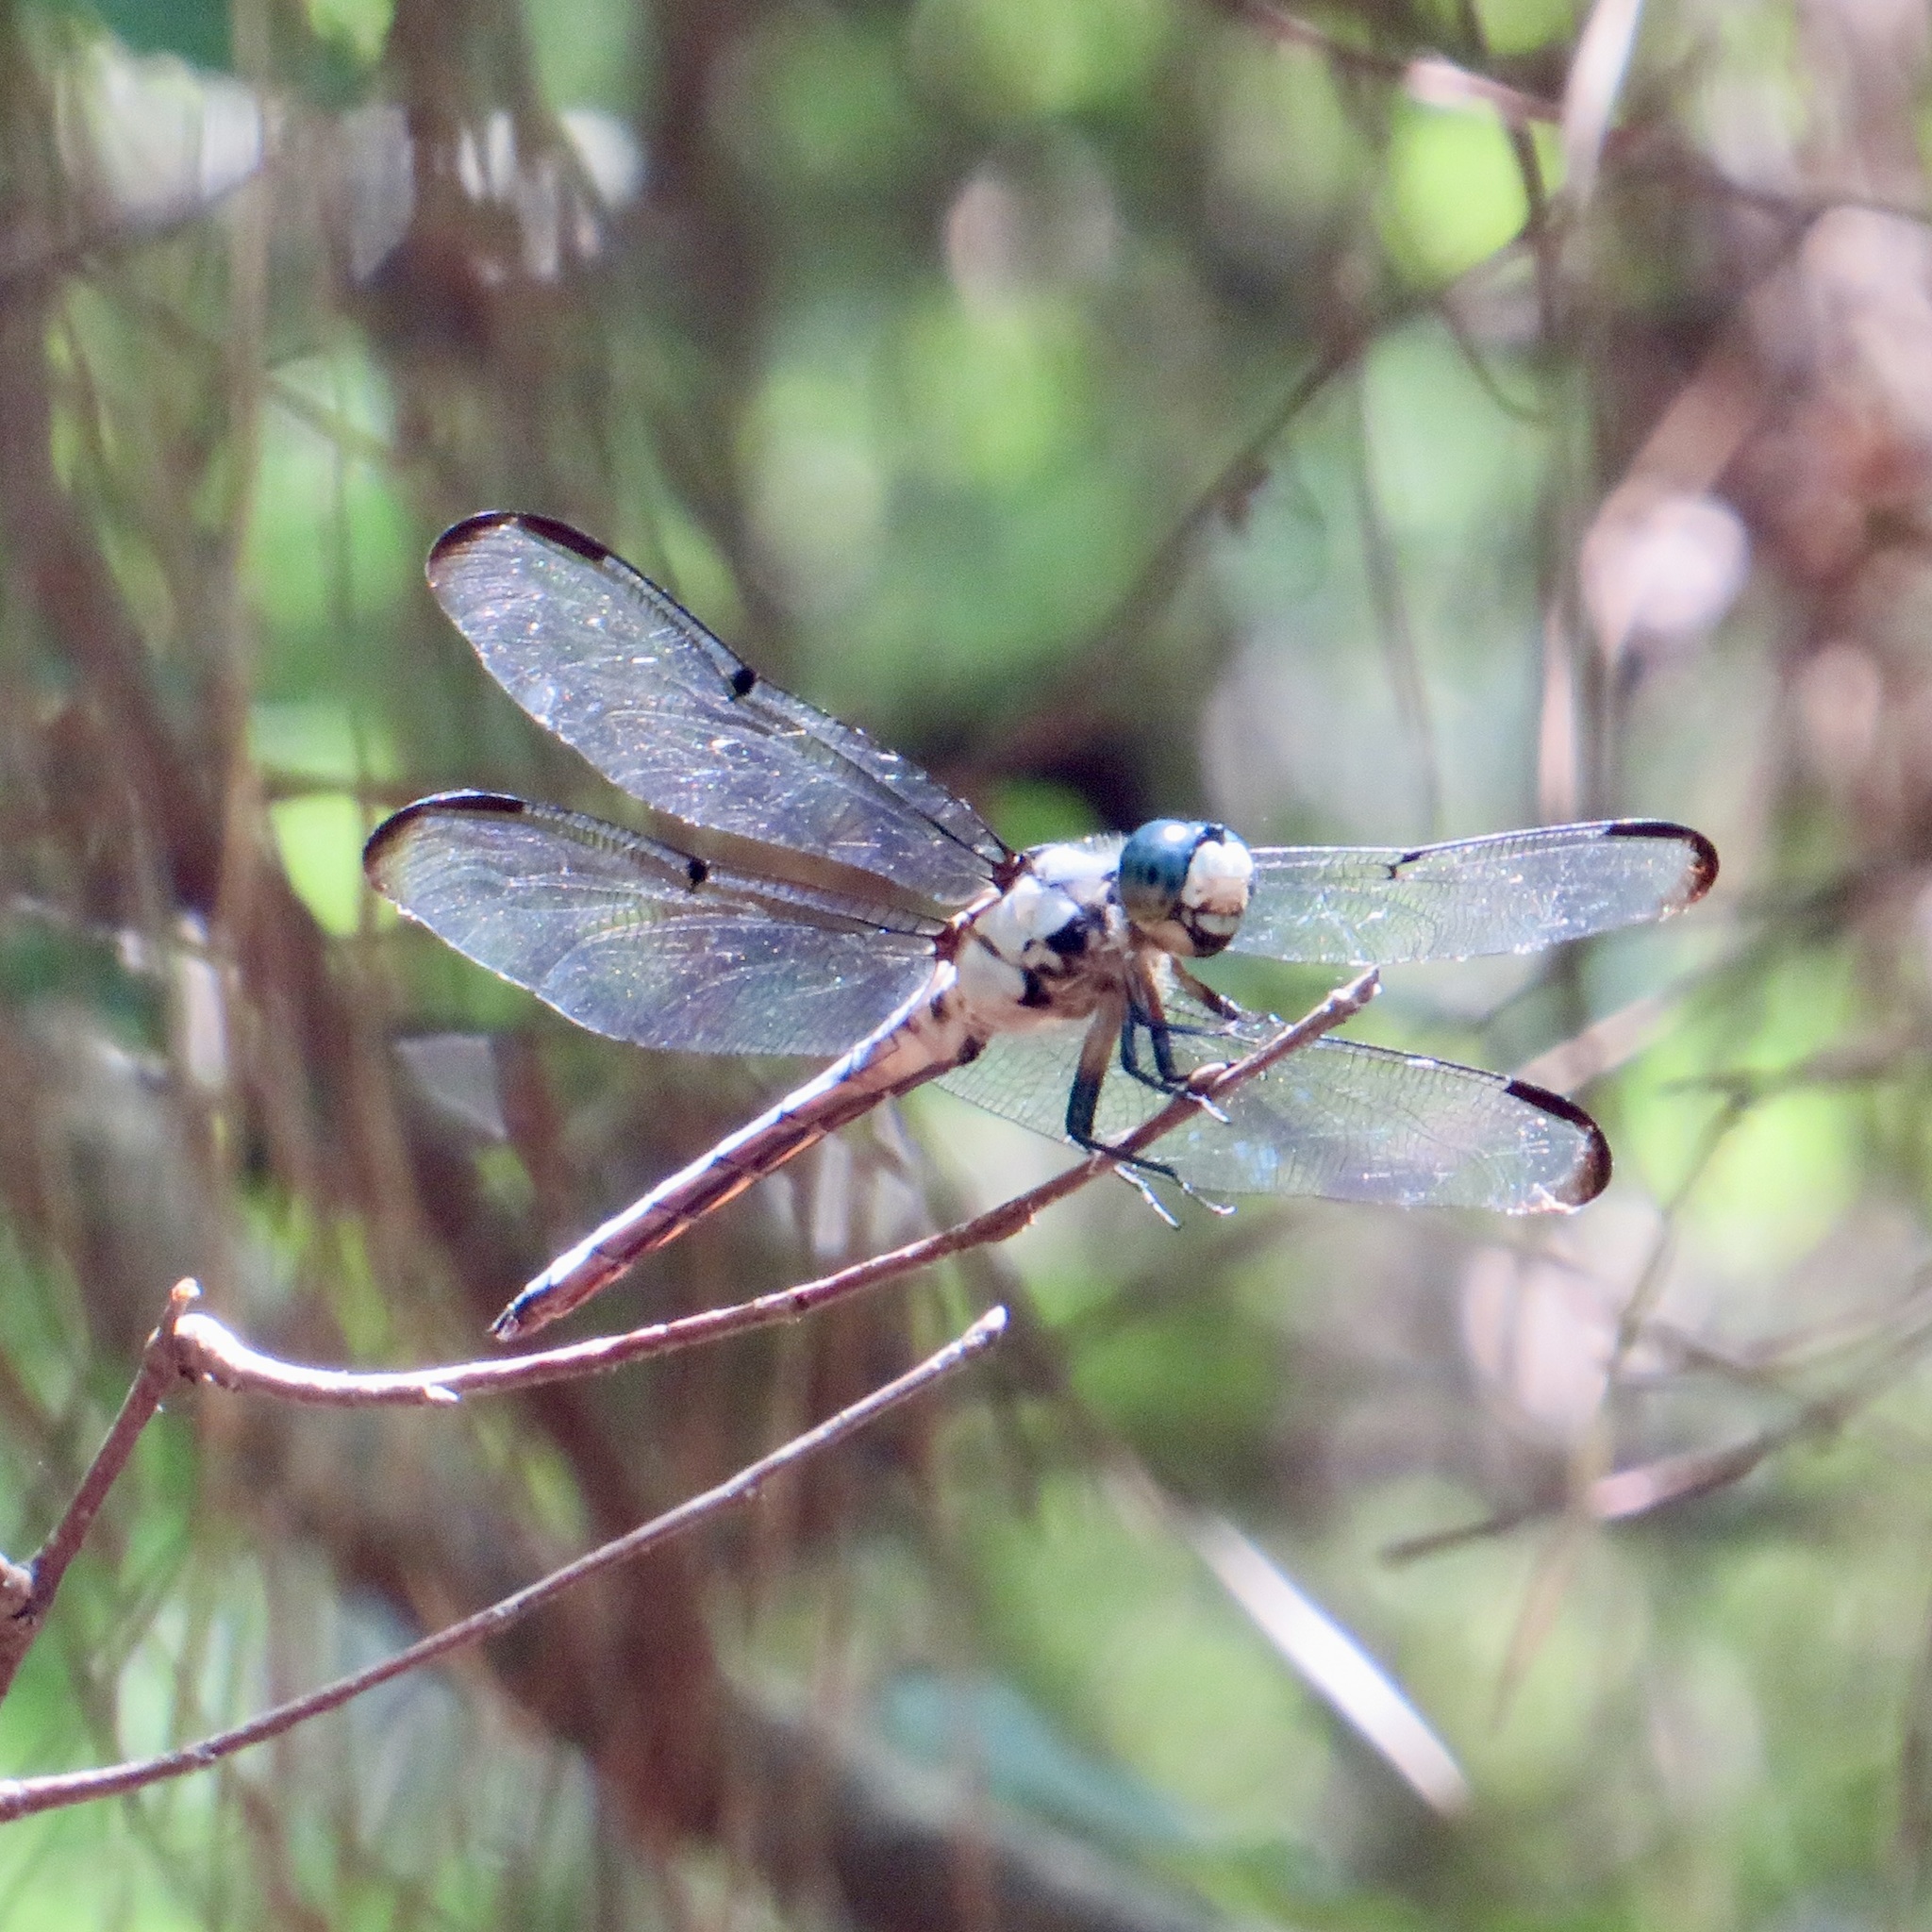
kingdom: Animalia
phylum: Arthropoda
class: Insecta
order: Odonata
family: Libellulidae
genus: Libellula
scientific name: Libellula vibrans
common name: Great blue skimmer
